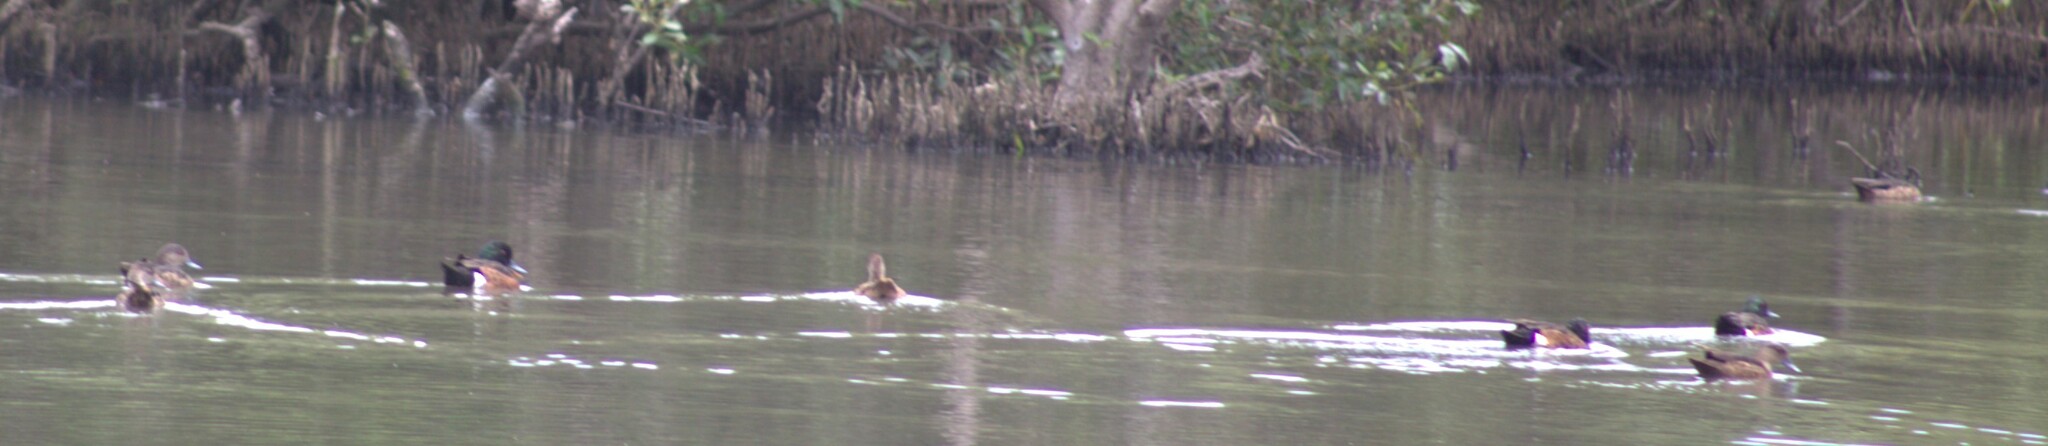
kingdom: Animalia
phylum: Chordata
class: Aves
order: Anseriformes
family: Anatidae
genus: Anas
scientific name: Anas castanea
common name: Chestnut teal
